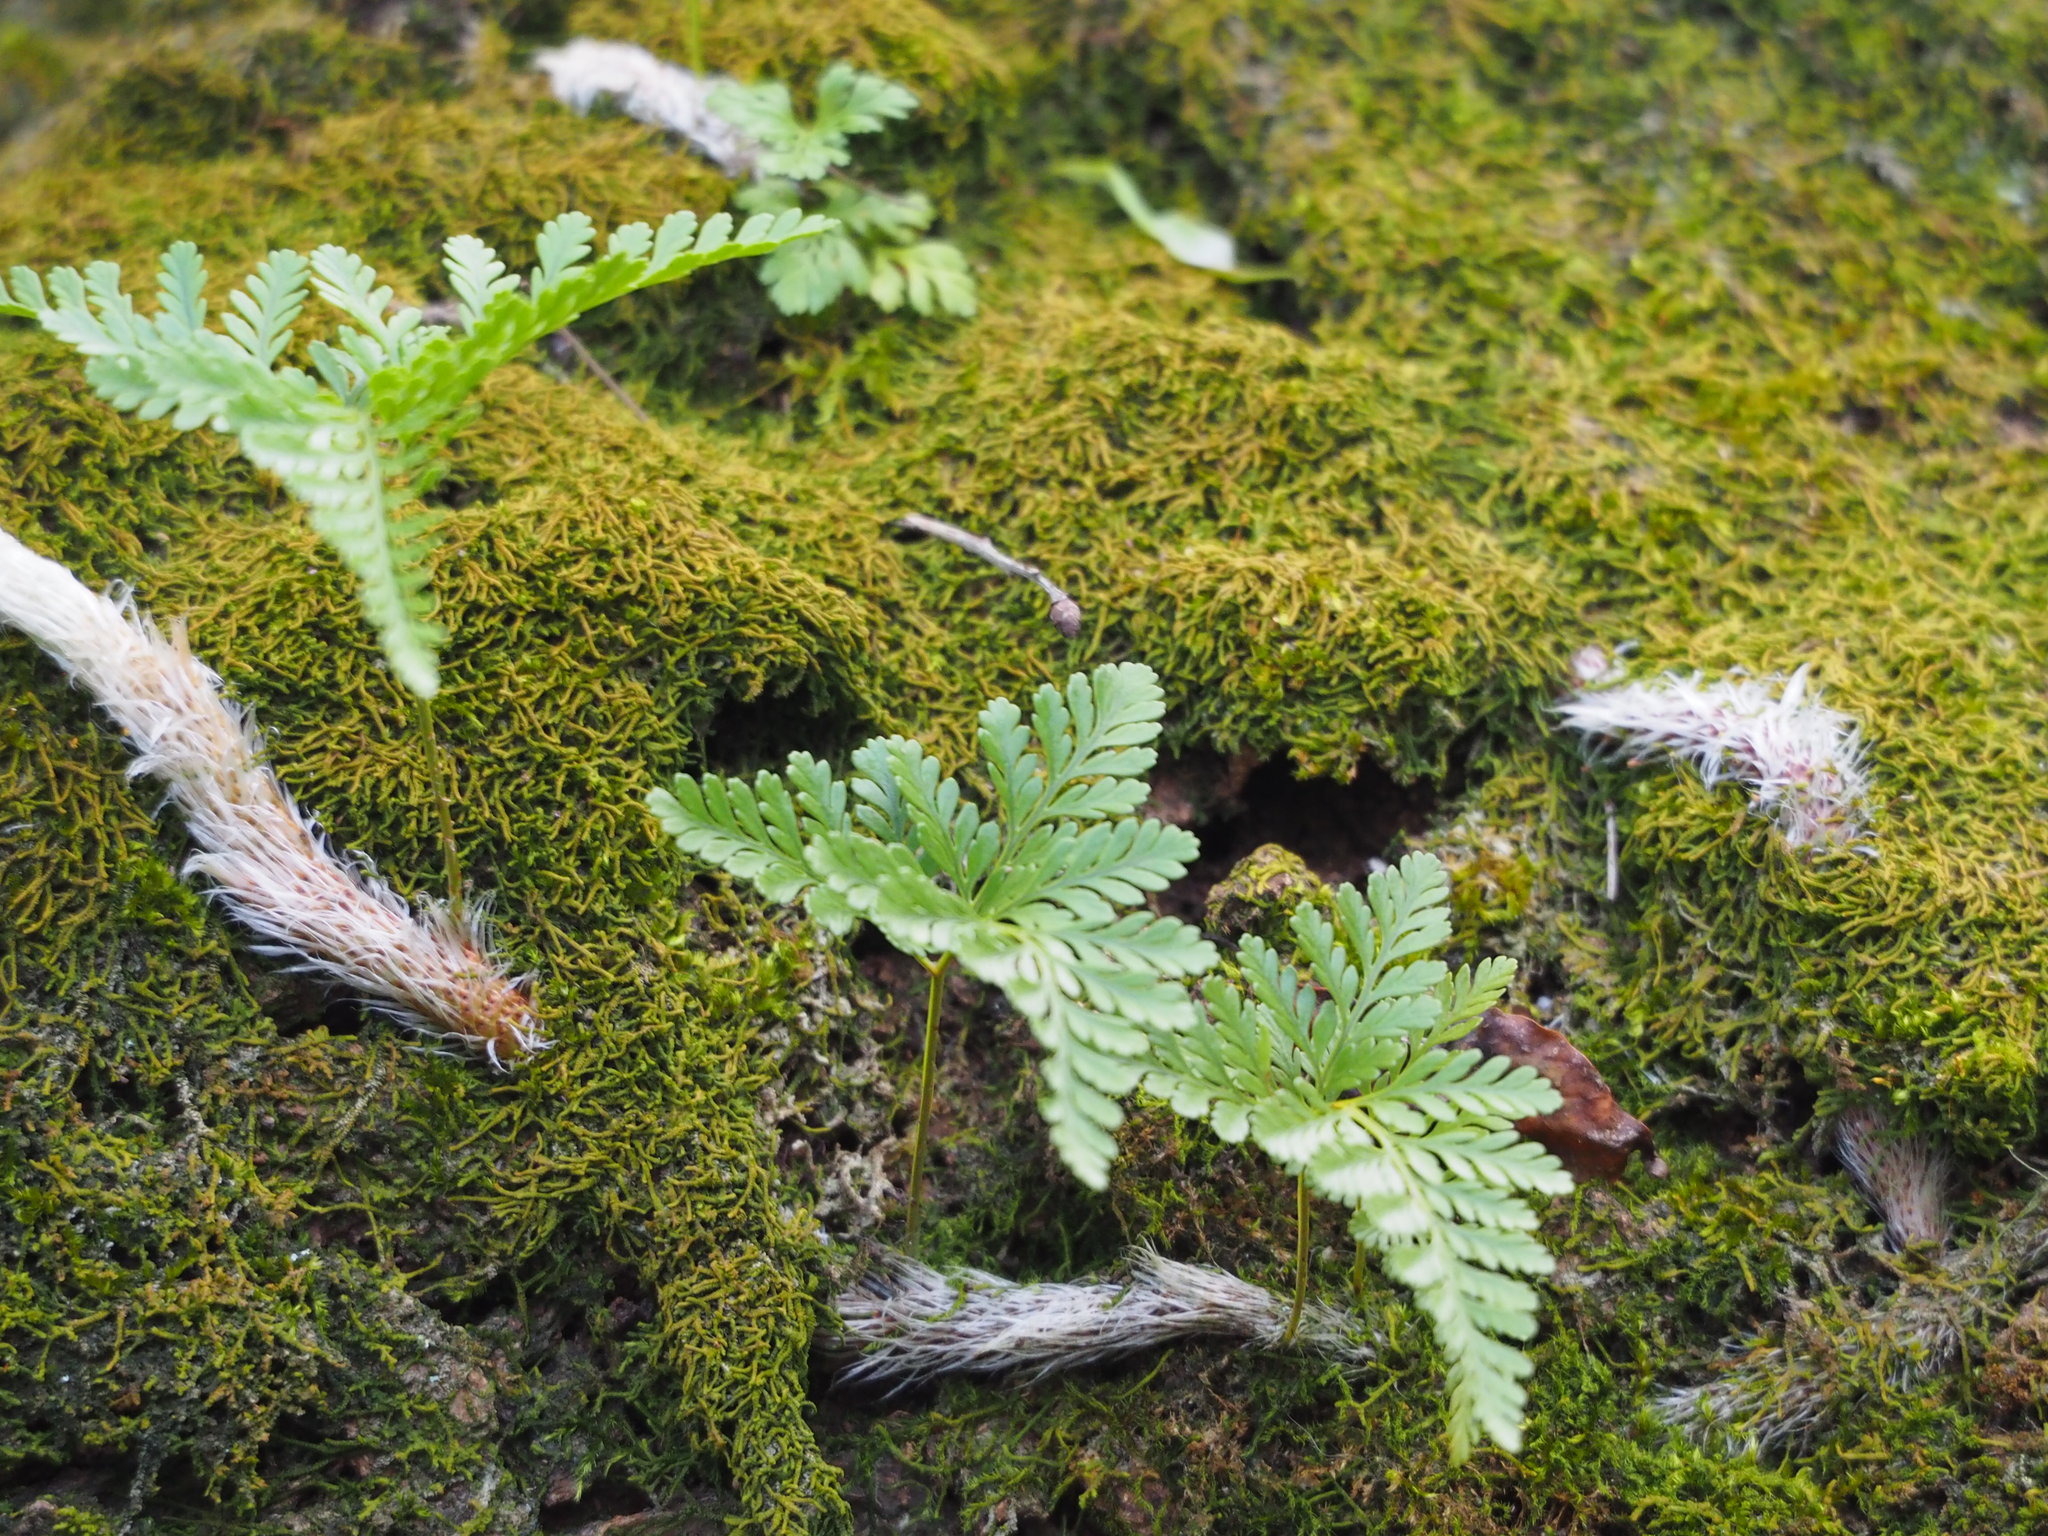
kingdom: Plantae
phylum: Tracheophyta
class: Polypodiopsida
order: Polypodiales
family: Davalliaceae
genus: Davallia
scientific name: Davallia griffithiana
